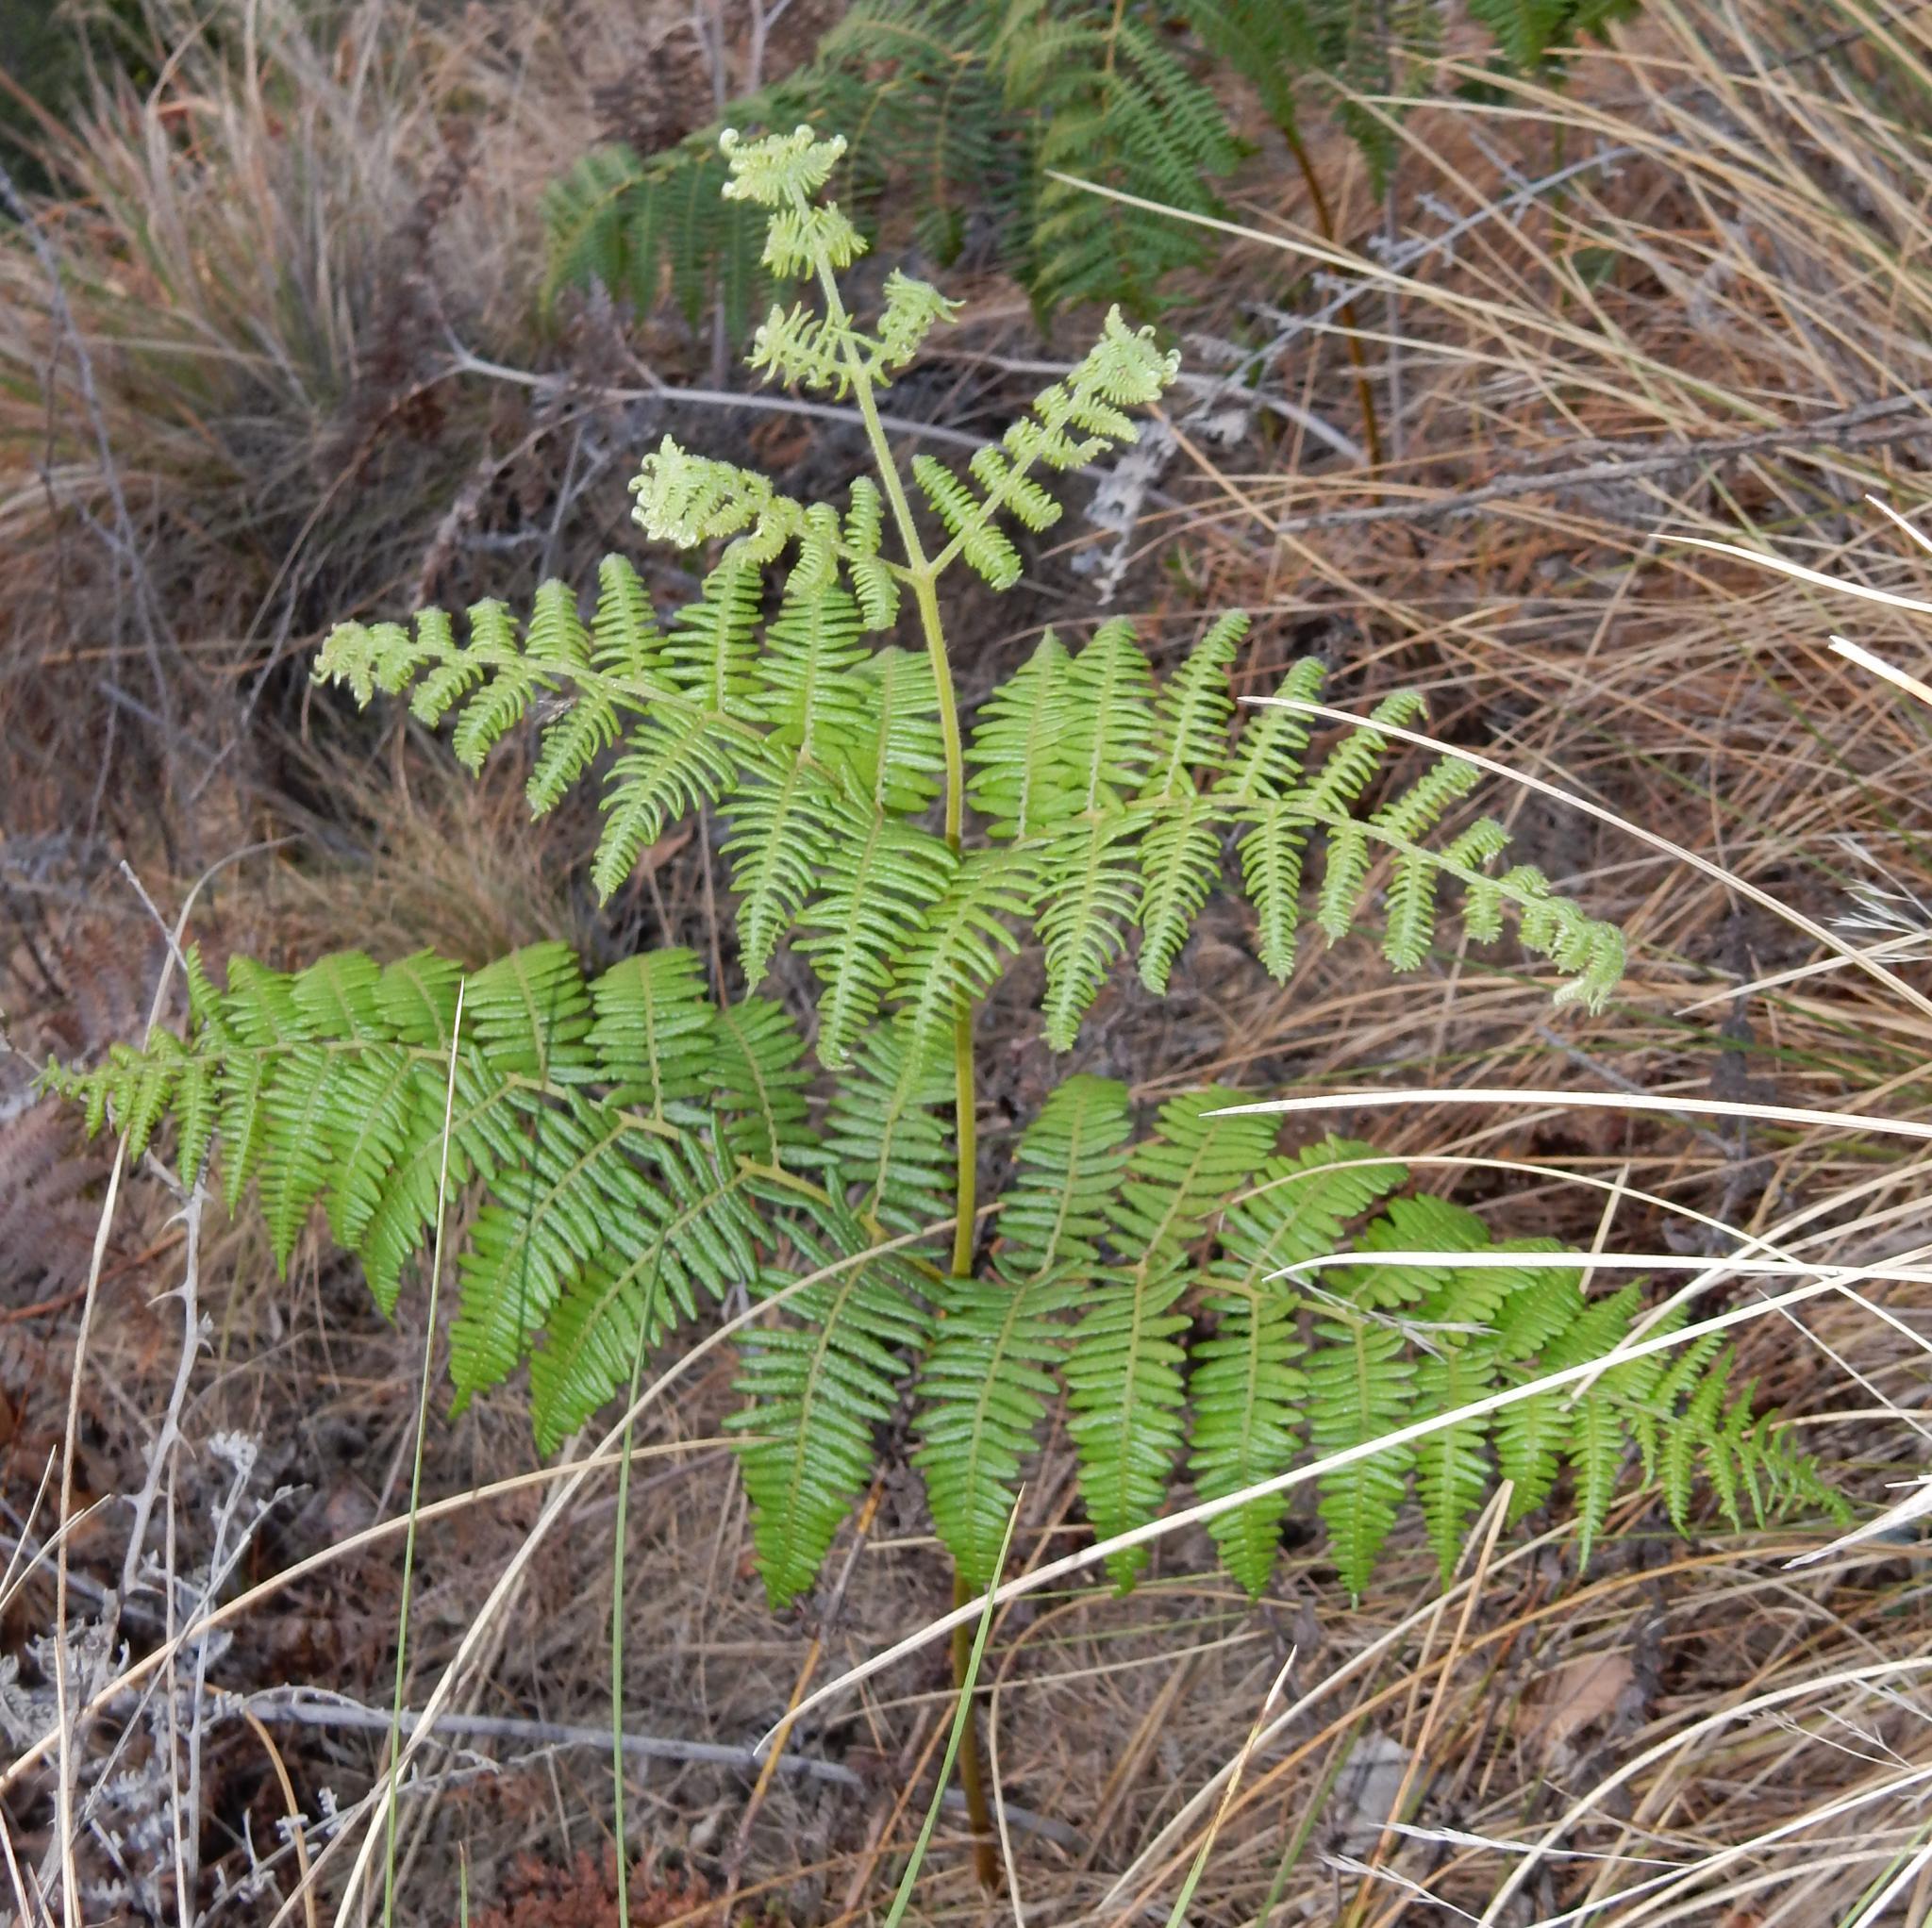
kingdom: Plantae
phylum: Tracheophyta
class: Polypodiopsida
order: Polypodiales
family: Dennstaedtiaceae
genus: Pteridium
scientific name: Pteridium aquilinum
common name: Bracken
